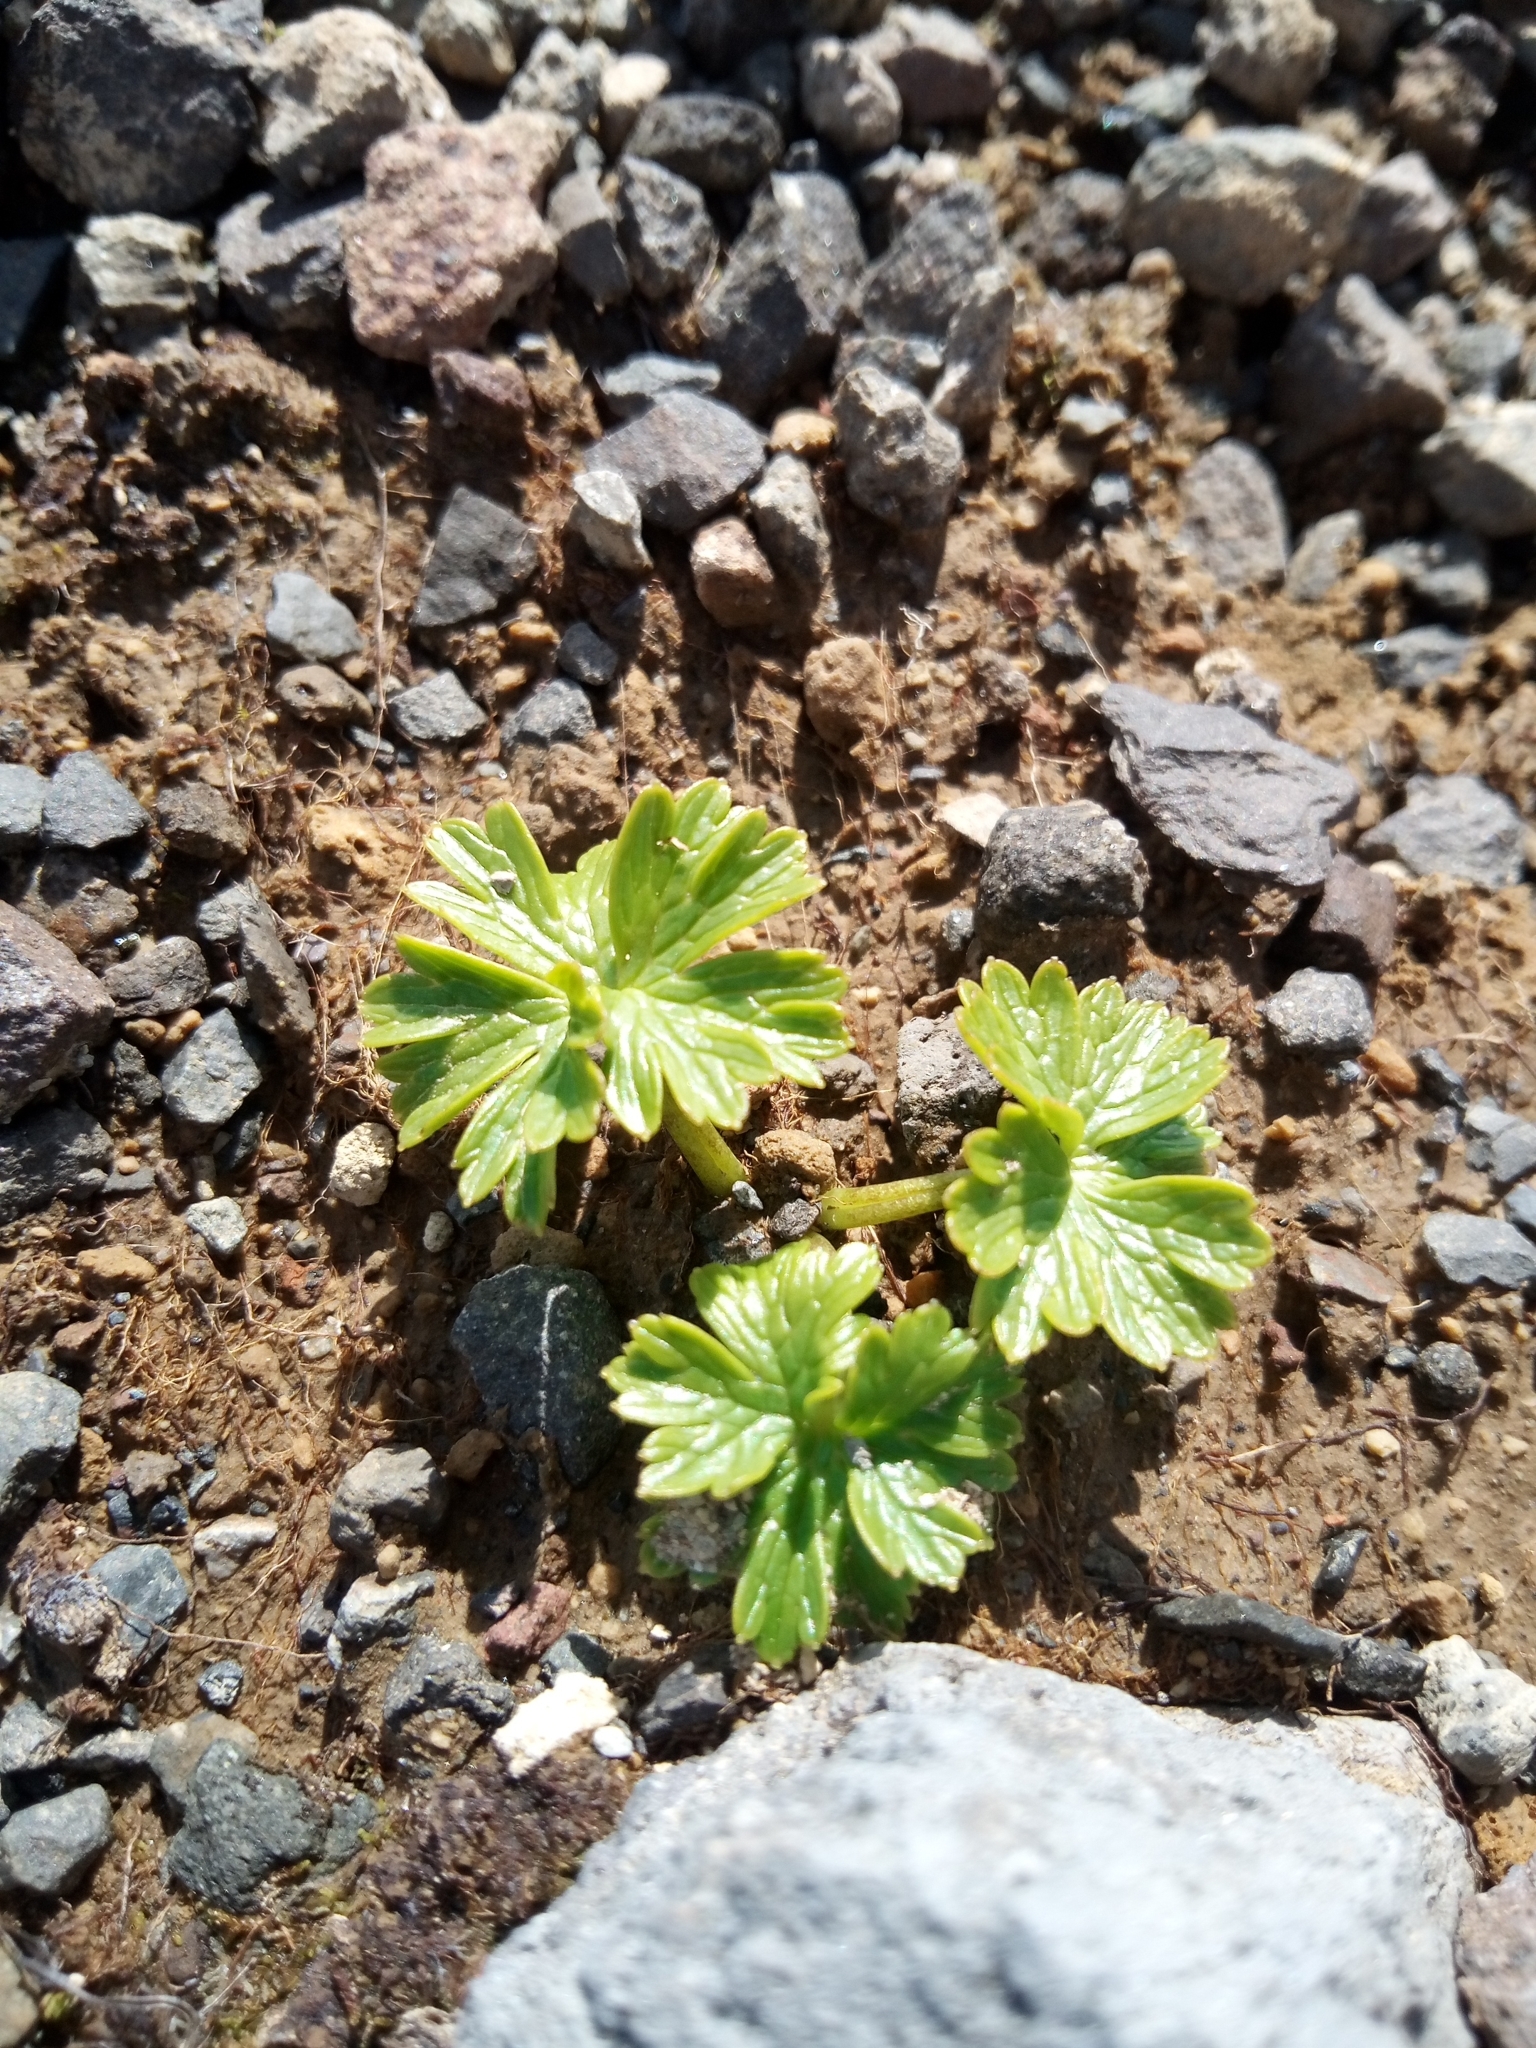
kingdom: Plantae
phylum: Tracheophyta
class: Magnoliopsida
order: Ranunculales
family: Ranunculaceae
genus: Arcteranthis
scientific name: Arcteranthis cooleyae
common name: Cooley's buttercup
